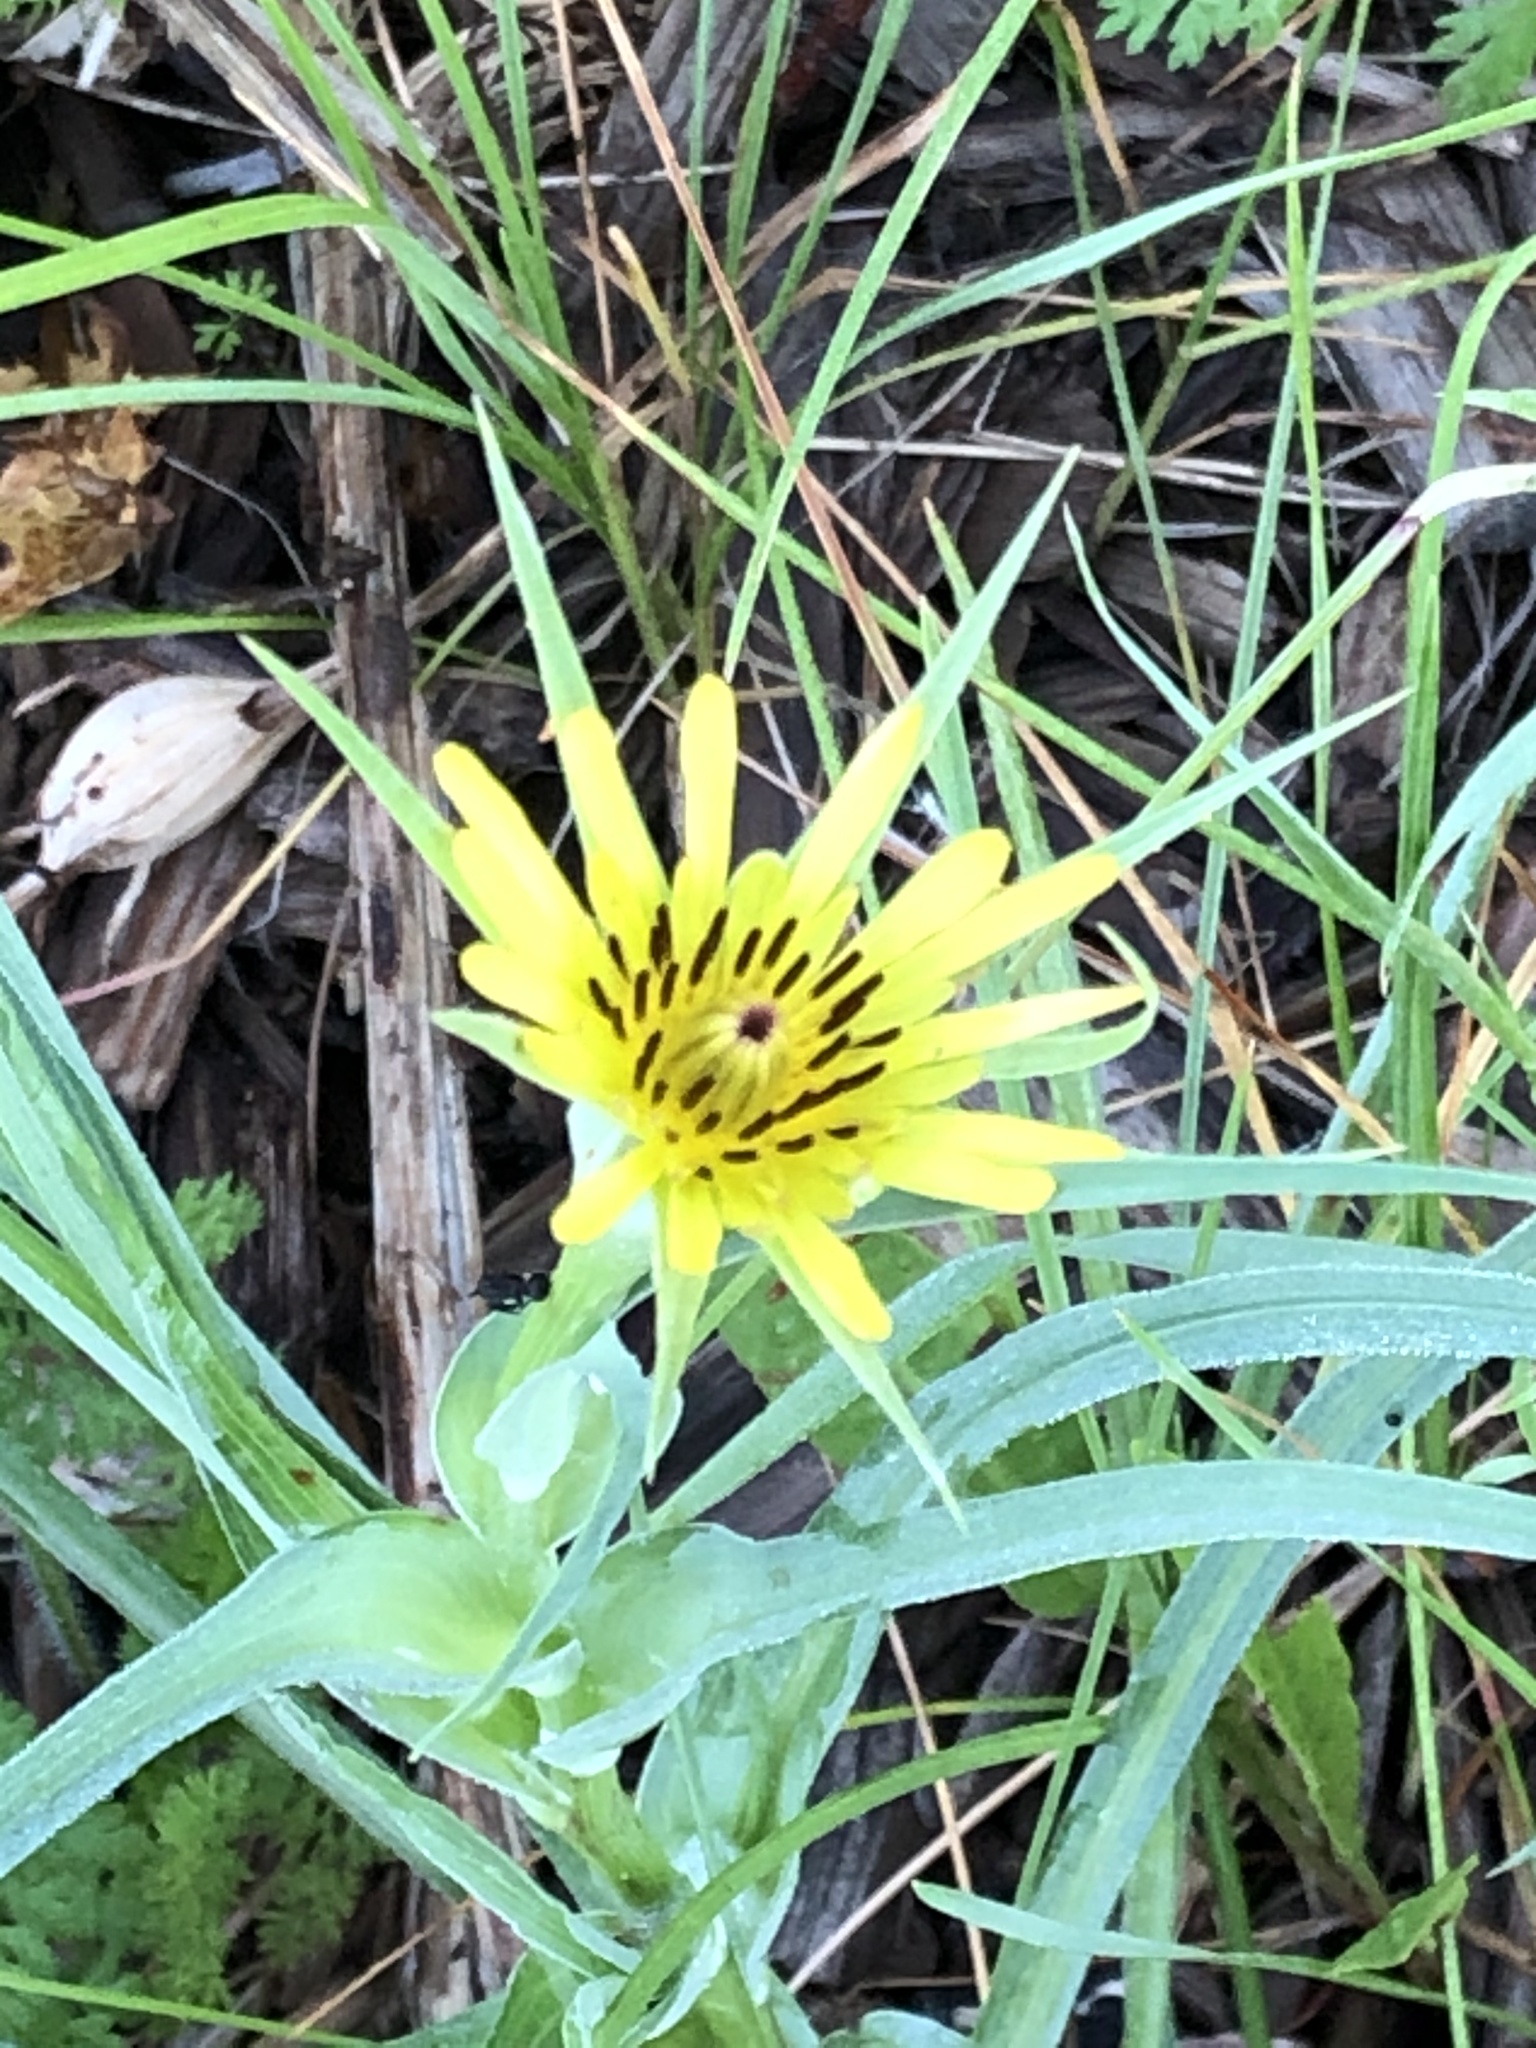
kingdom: Plantae
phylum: Tracheophyta
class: Magnoliopsida
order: Asterales
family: Asteraceae
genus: Tragopogon
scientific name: Tragopogon dubius
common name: Yellow salsify
